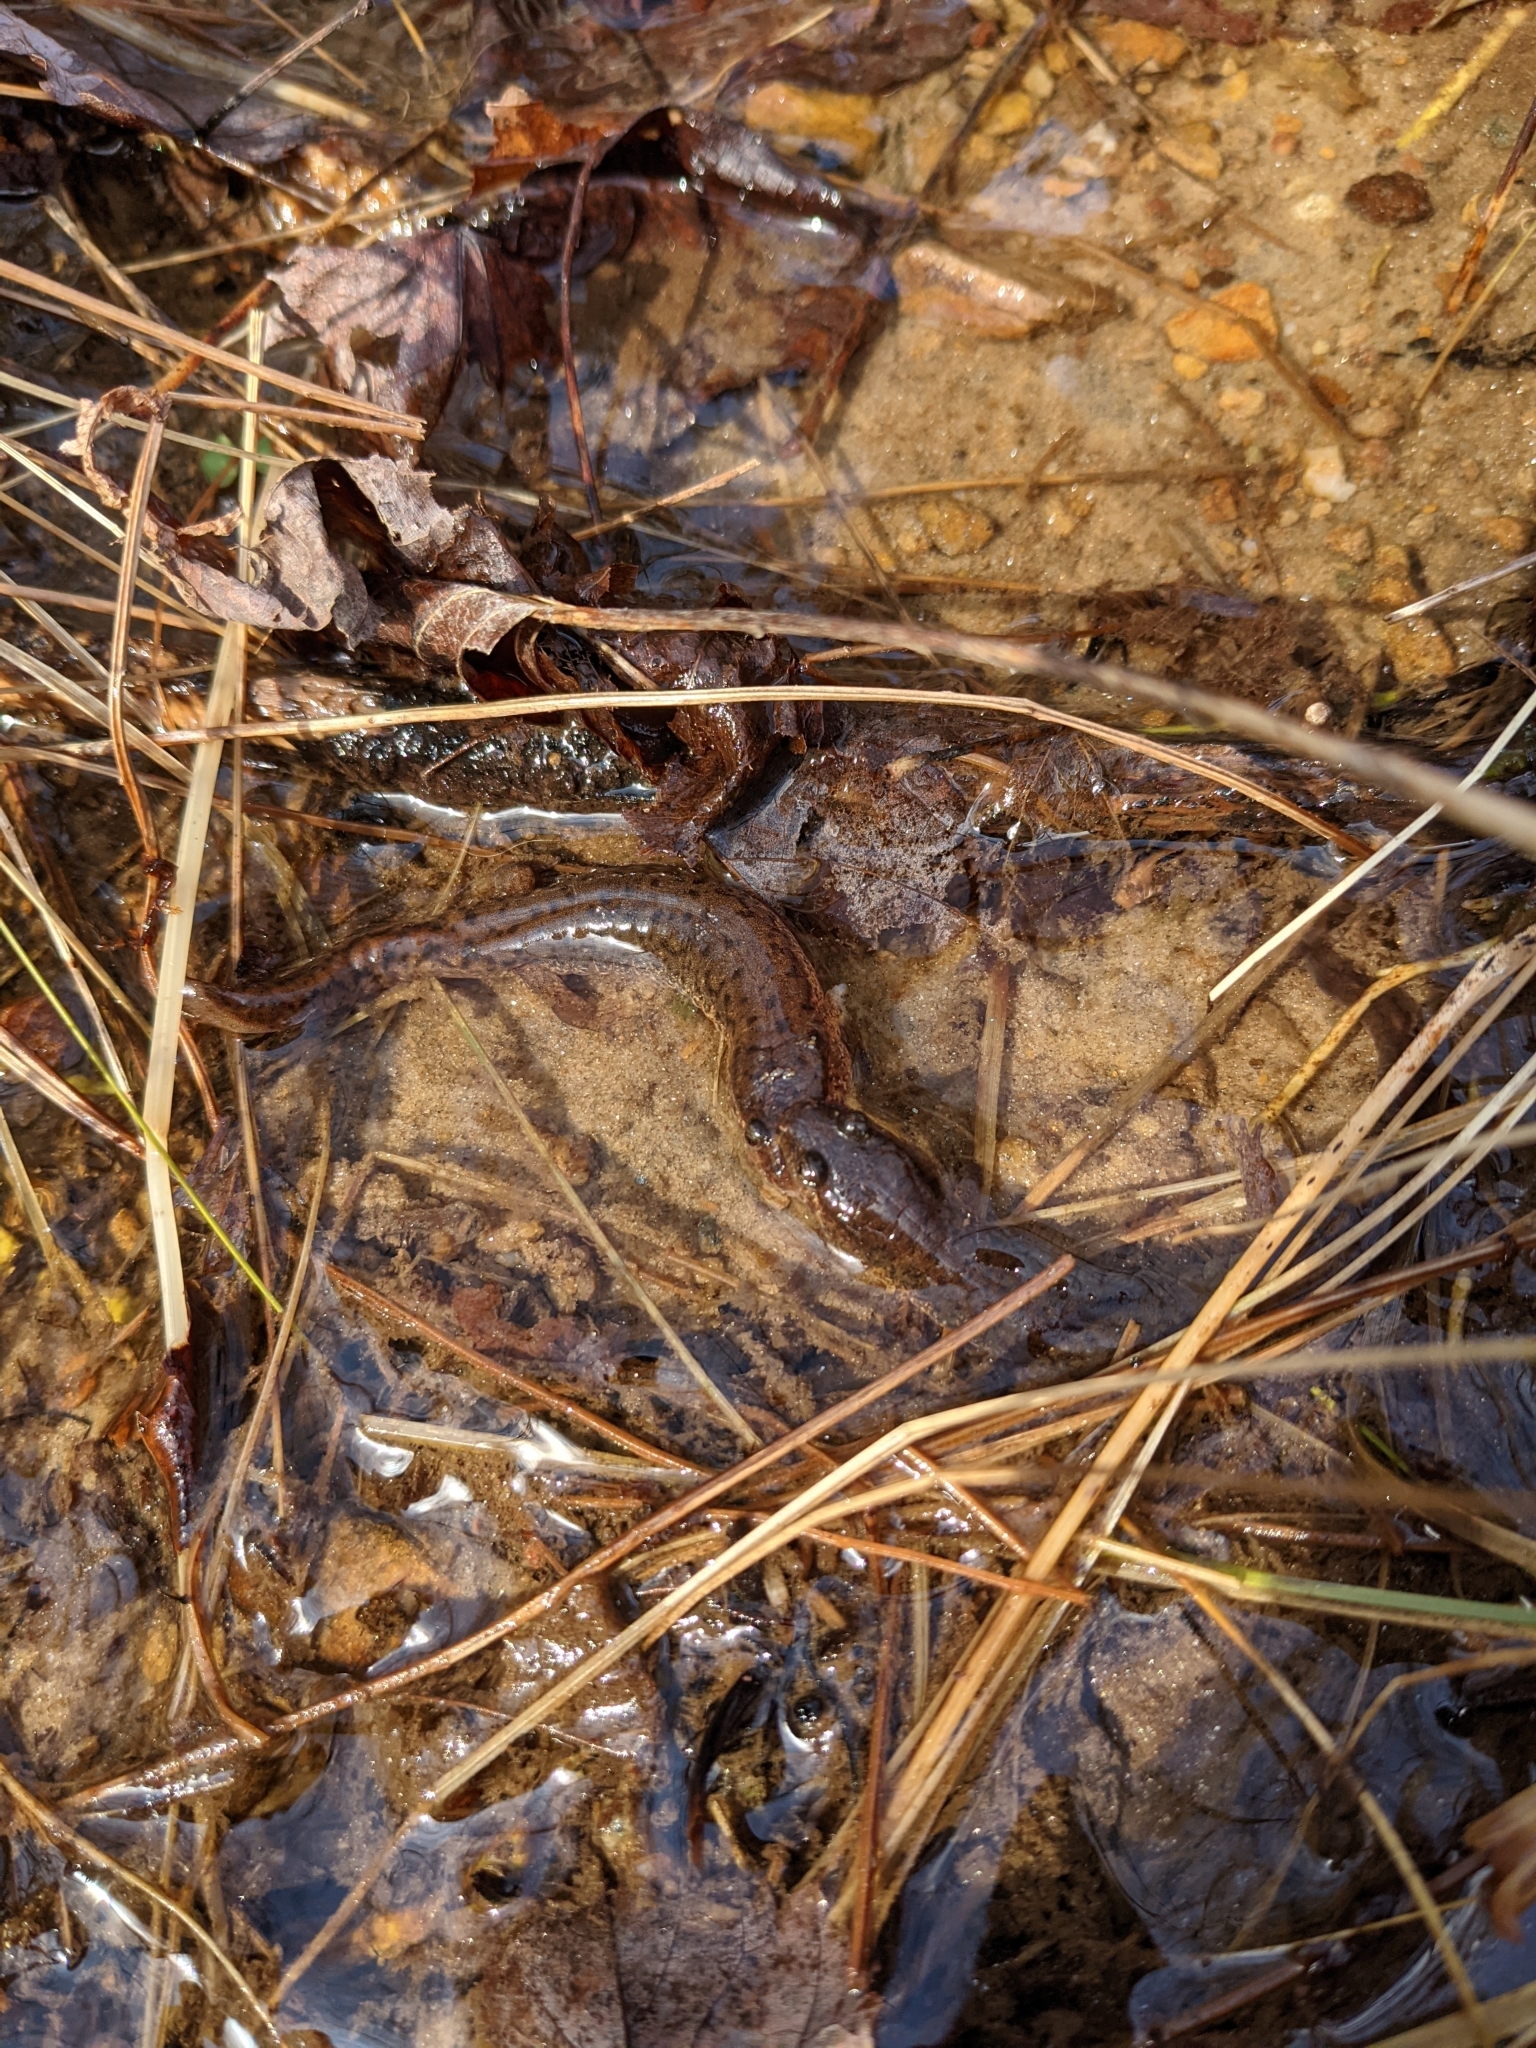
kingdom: Animalia
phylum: Chordata
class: Amphibia
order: Caudata
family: Plethodontidae
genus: Desmognathus
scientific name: Desmognathus fuscus
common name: Northern dusky salamander
